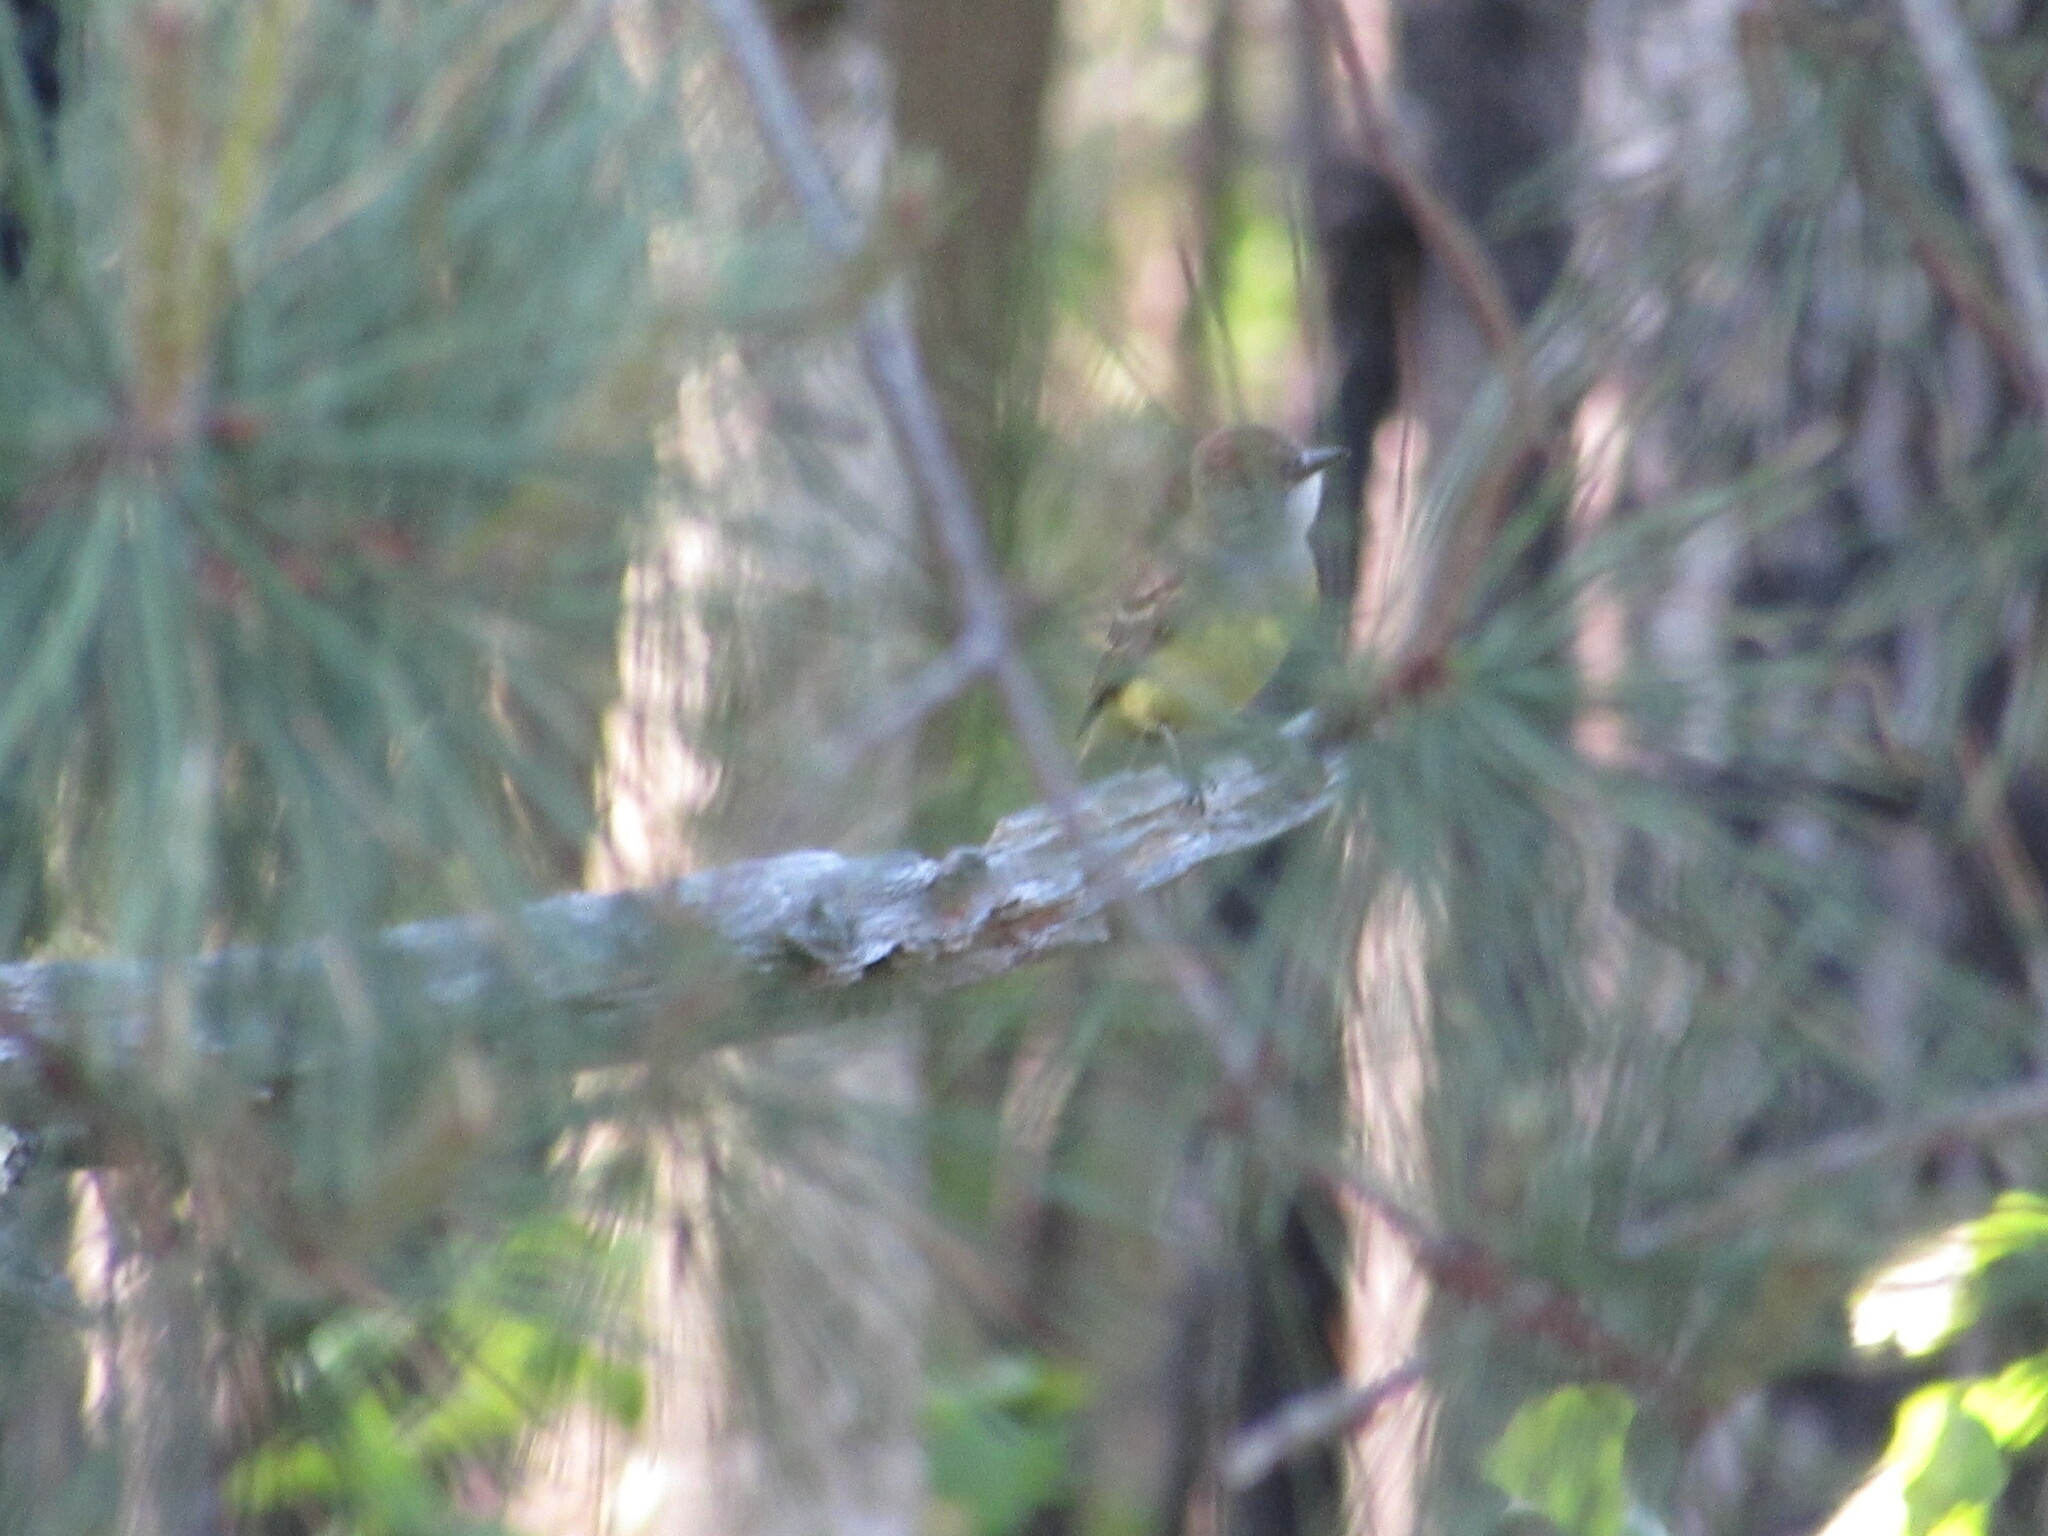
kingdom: Animalia
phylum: Chordata
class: Aves
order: Passeriformes
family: Tyrannidae
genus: Myiarchus
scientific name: Myiarchus crinitus
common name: Great crested flycatcher
